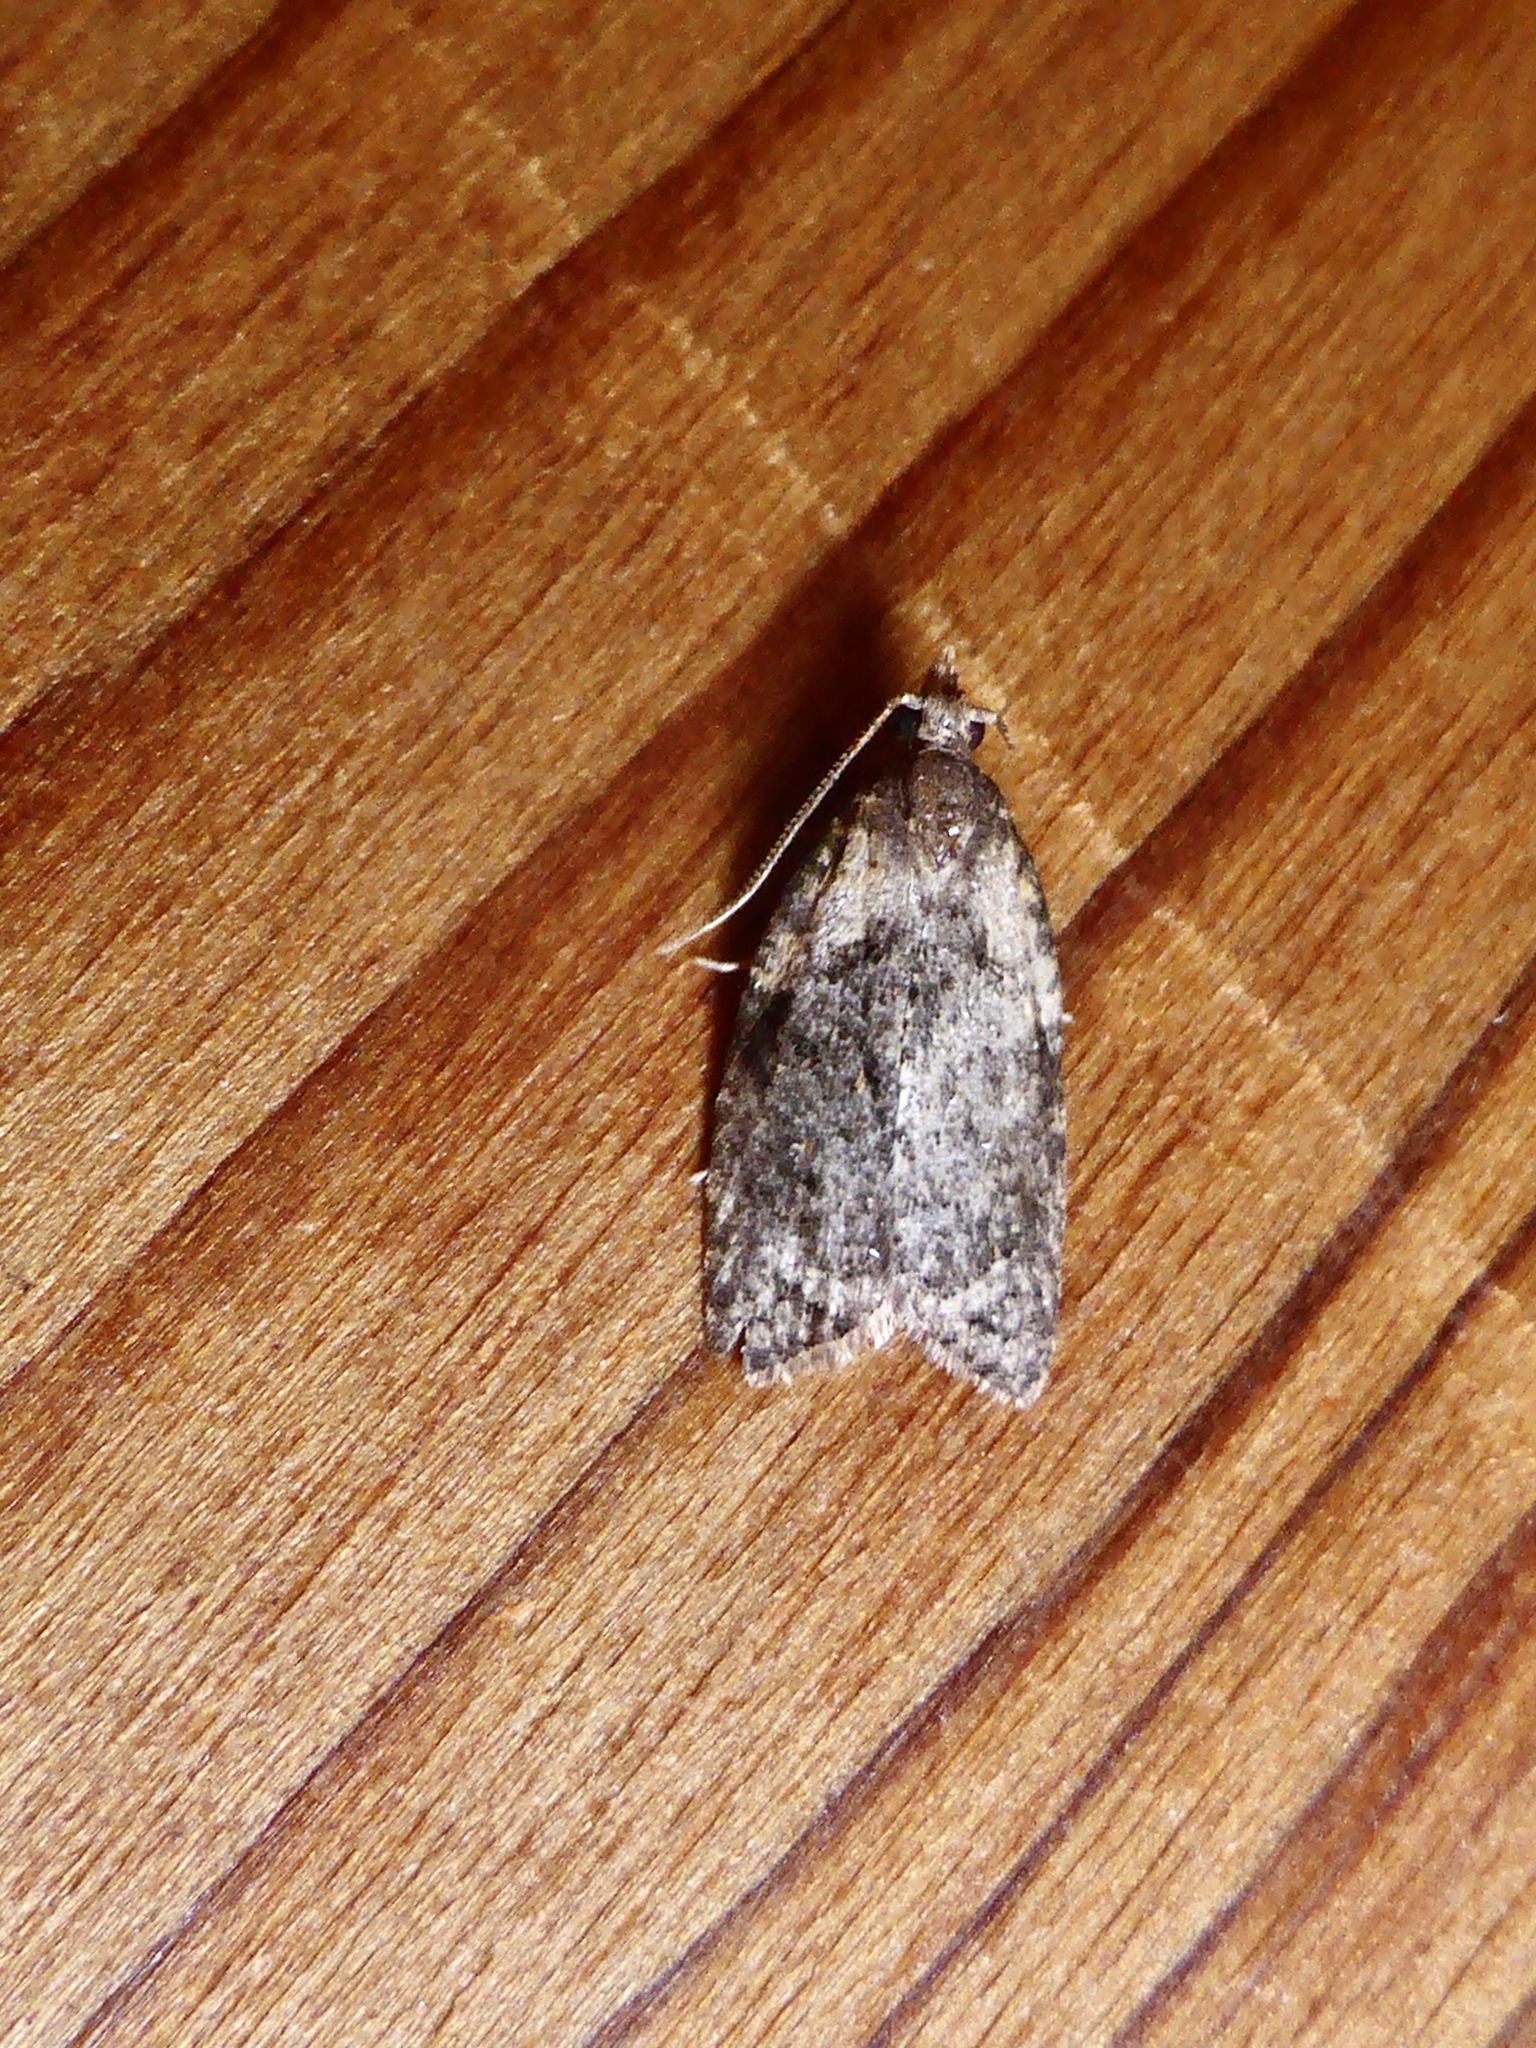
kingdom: Animalia
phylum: Arthropoda
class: Insecta
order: Lepidoptera
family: Tortricidae
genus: Capua
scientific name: Capua intractana
